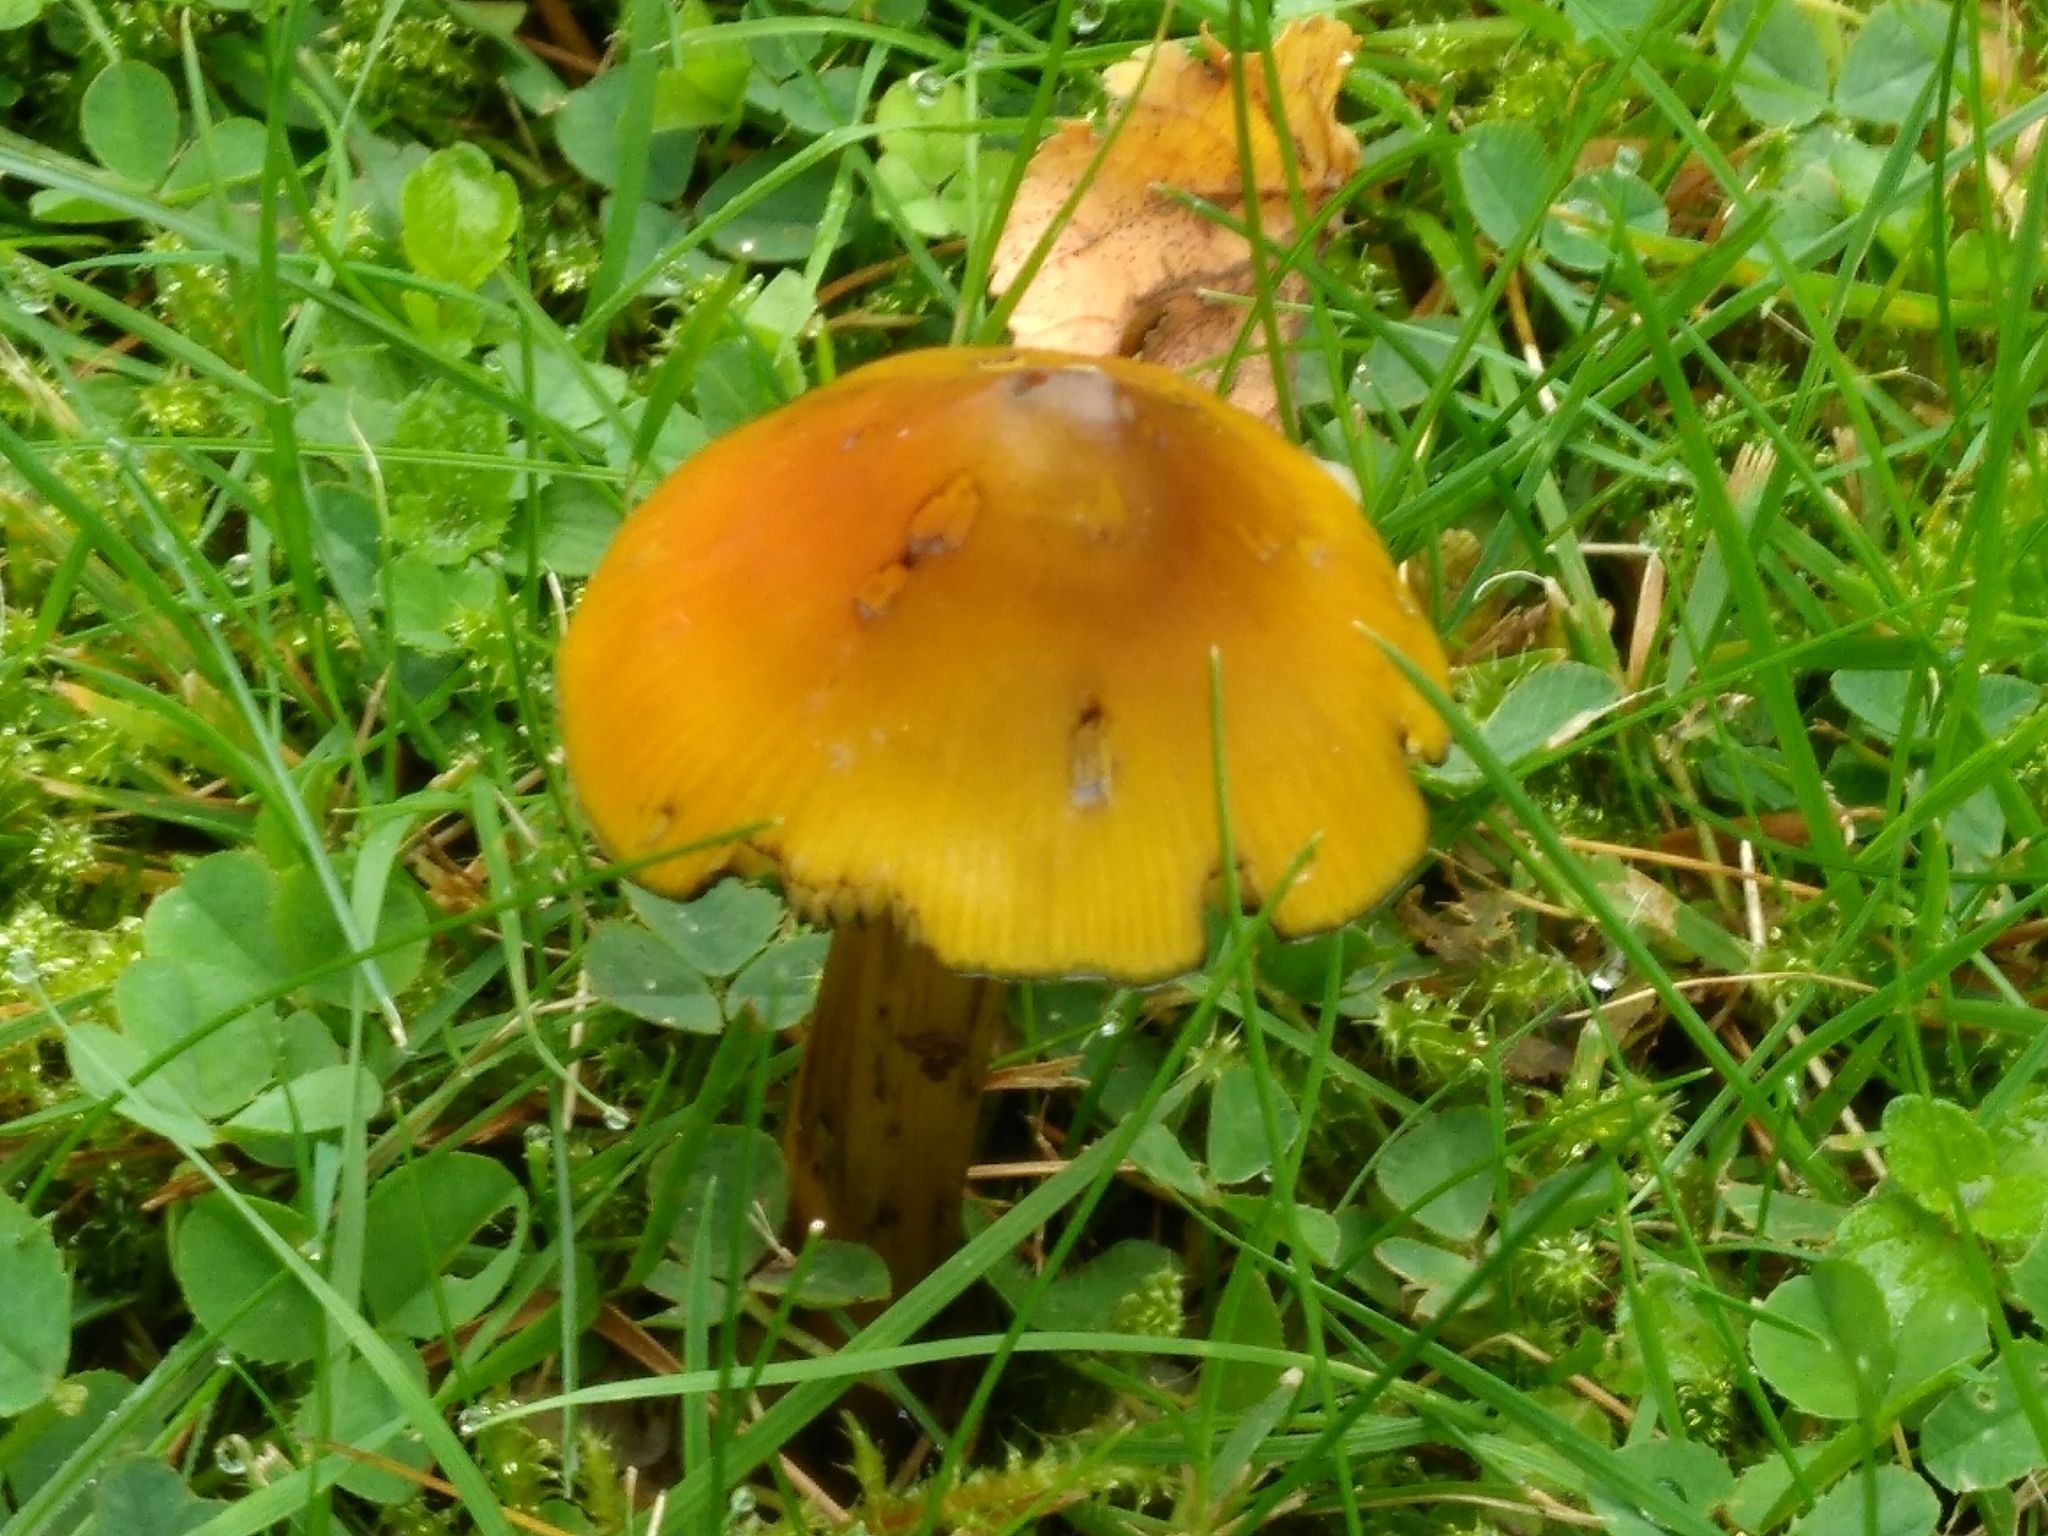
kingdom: Fungi
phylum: Basidiomycota
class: Agaricomycetes
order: Agaricales
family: Hygrophoraceae
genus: Hygrocybe
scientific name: Hygrocybe conica
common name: Blackening wax-cap
